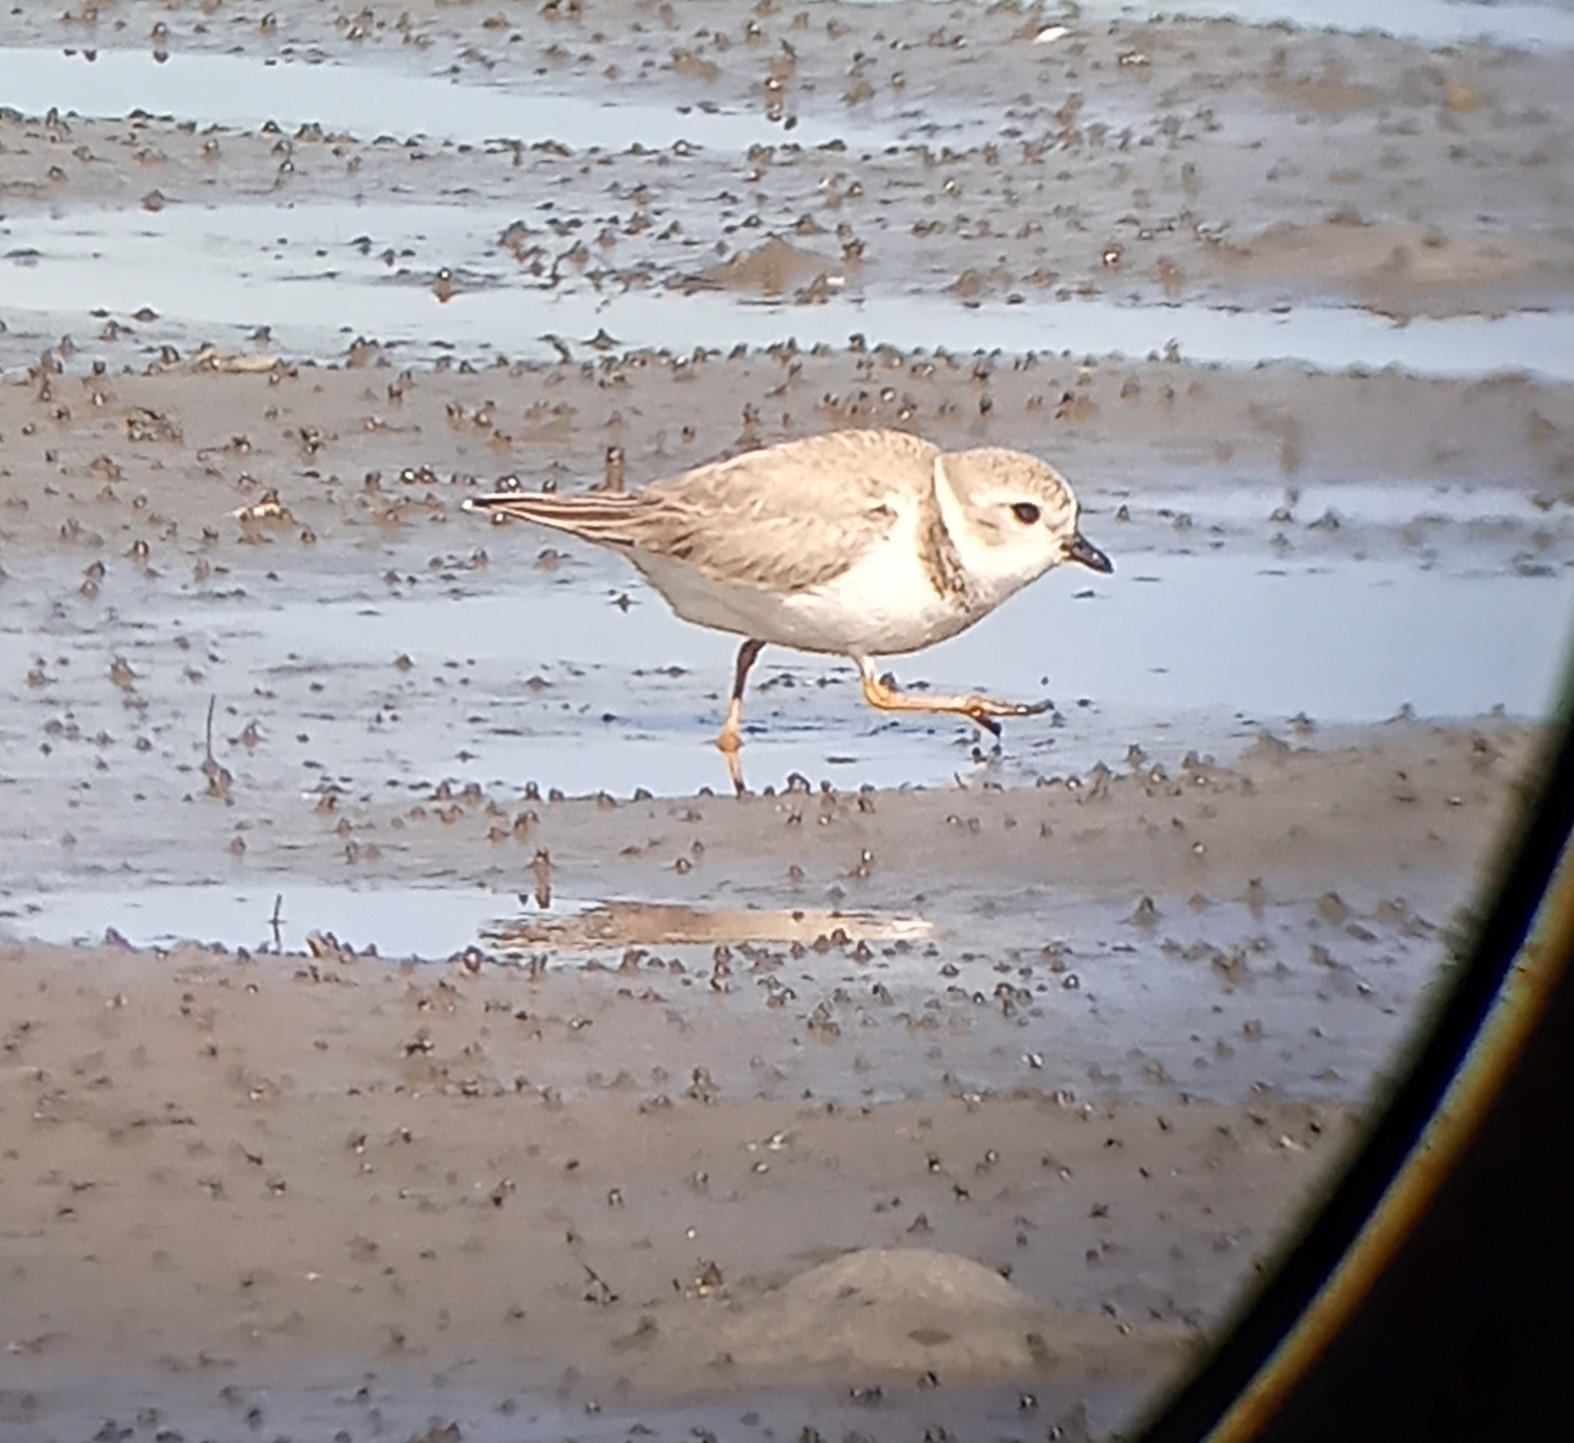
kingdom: Animalia
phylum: Chordata
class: Aves
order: Charadriiformes
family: Charadriidae
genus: Charadrius
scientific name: Charadrius melodus
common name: Piping plover
